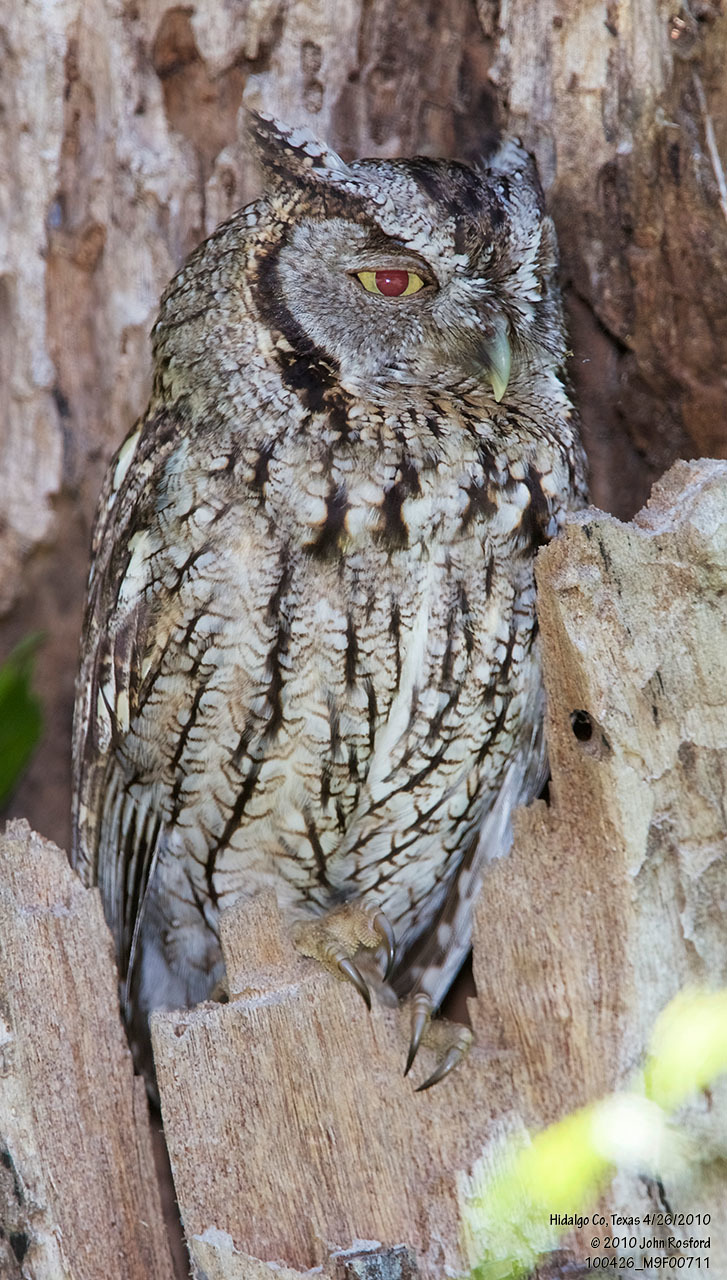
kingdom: Animalia
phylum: Chordata
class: Aves
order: Strigiformes
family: Strigidae
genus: Megascops
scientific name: Megascops asio
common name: Eastern screech-owl
